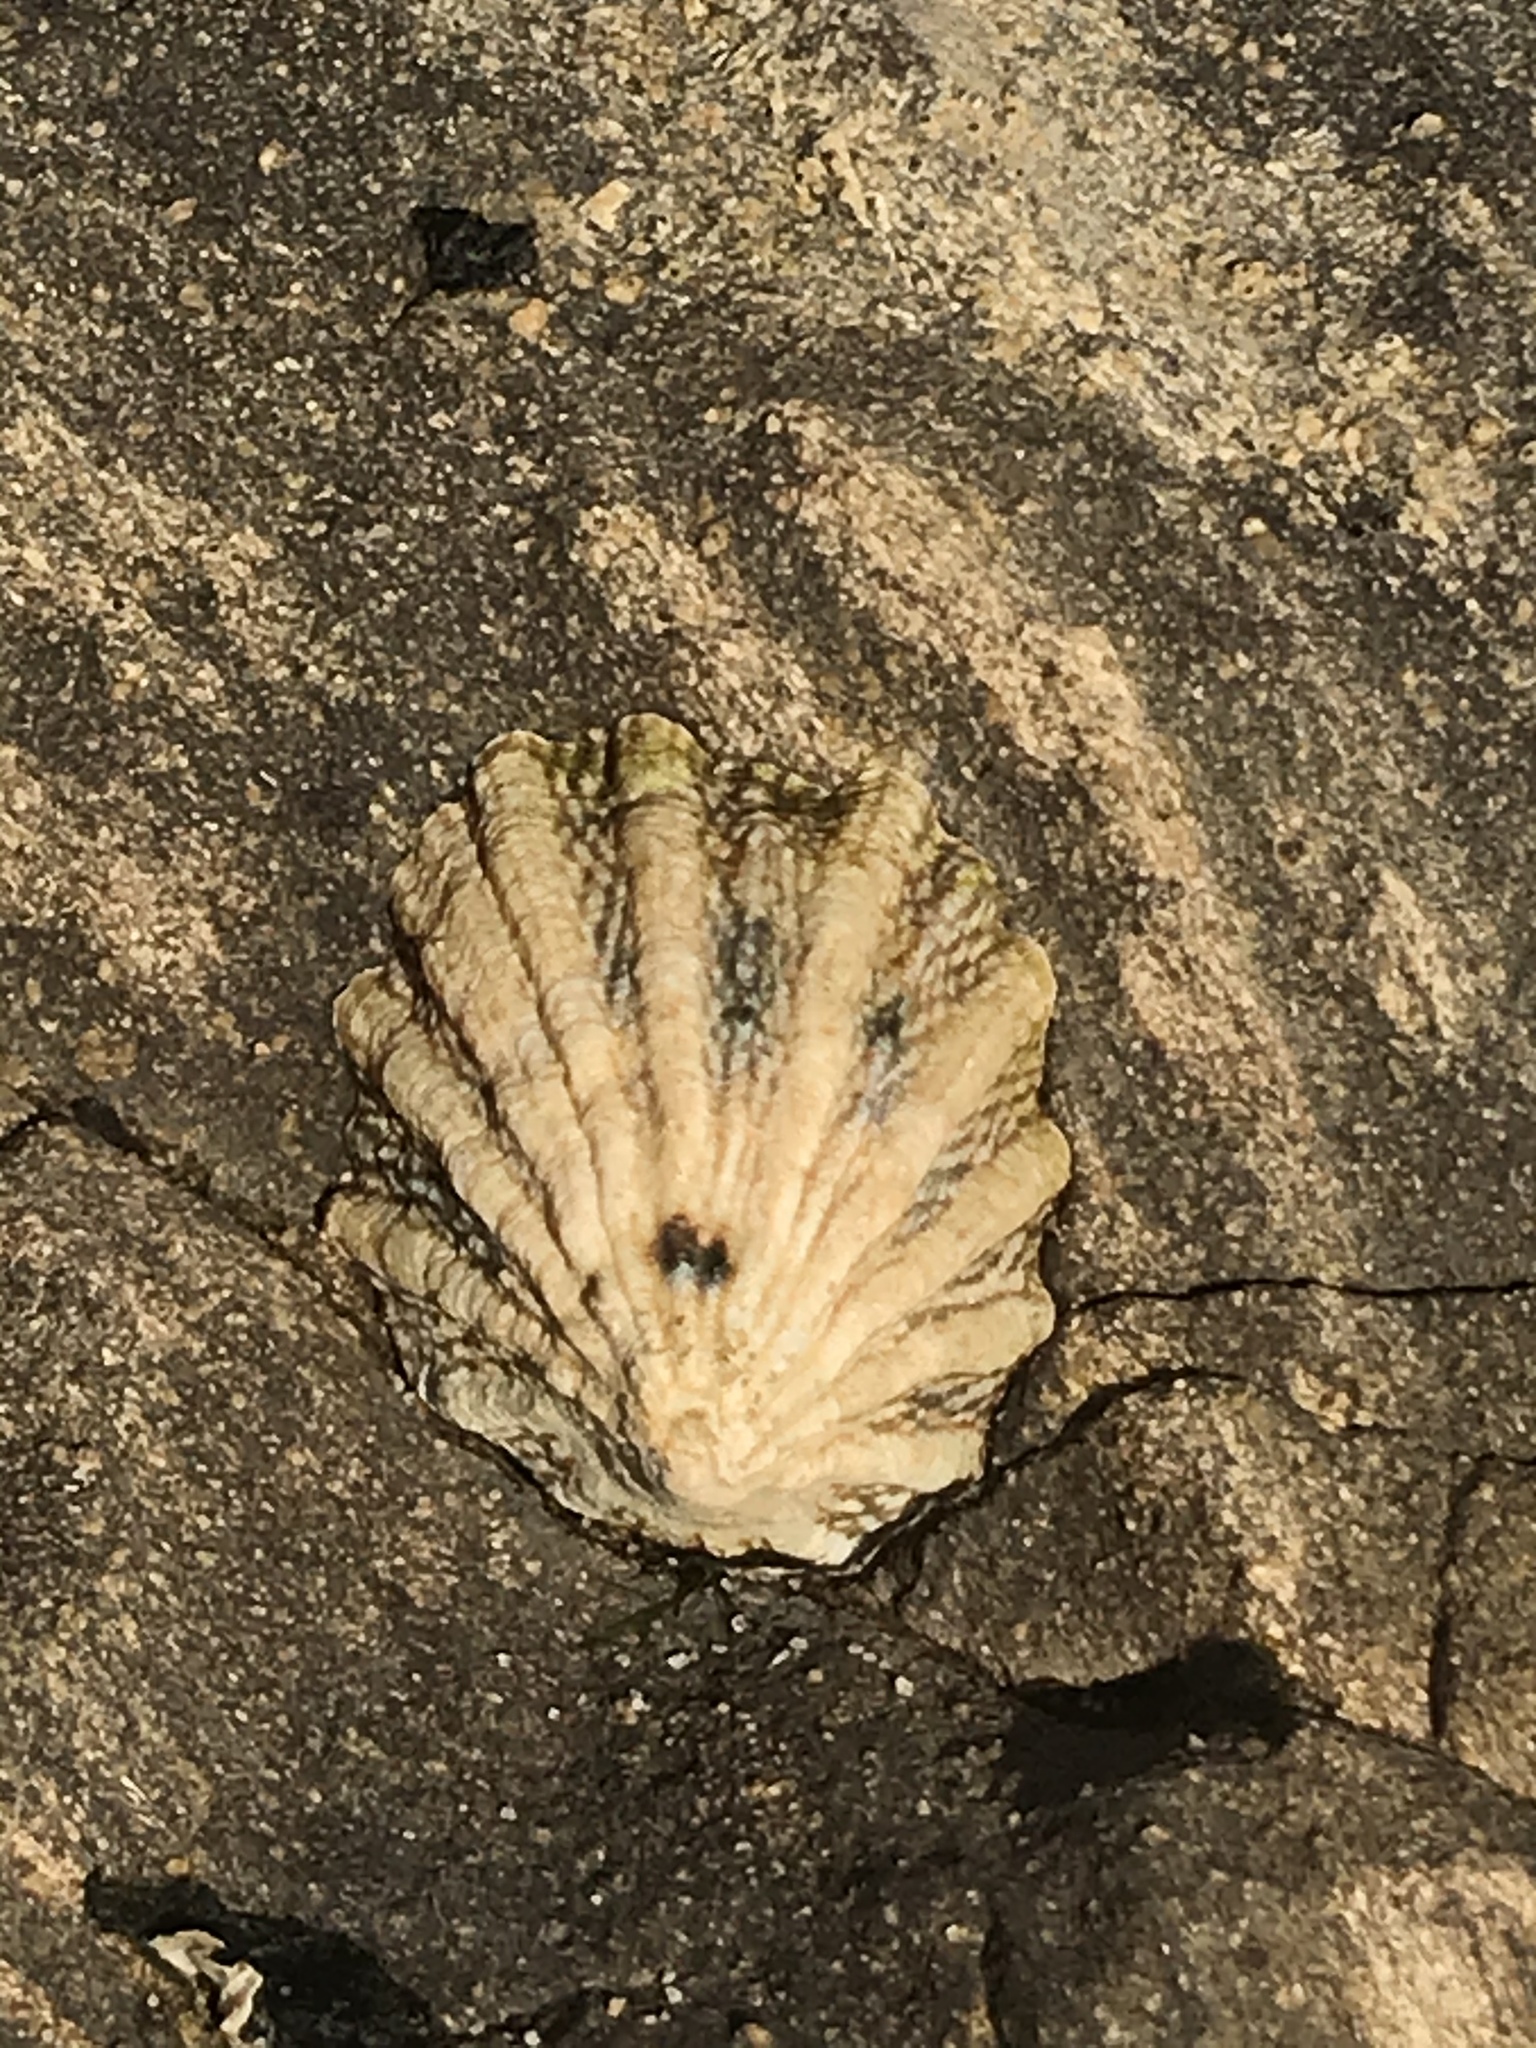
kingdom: Animalia
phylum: Mollusca
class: Gastropoda
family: Lottiidae
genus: Lottia
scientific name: Lottia scabra
